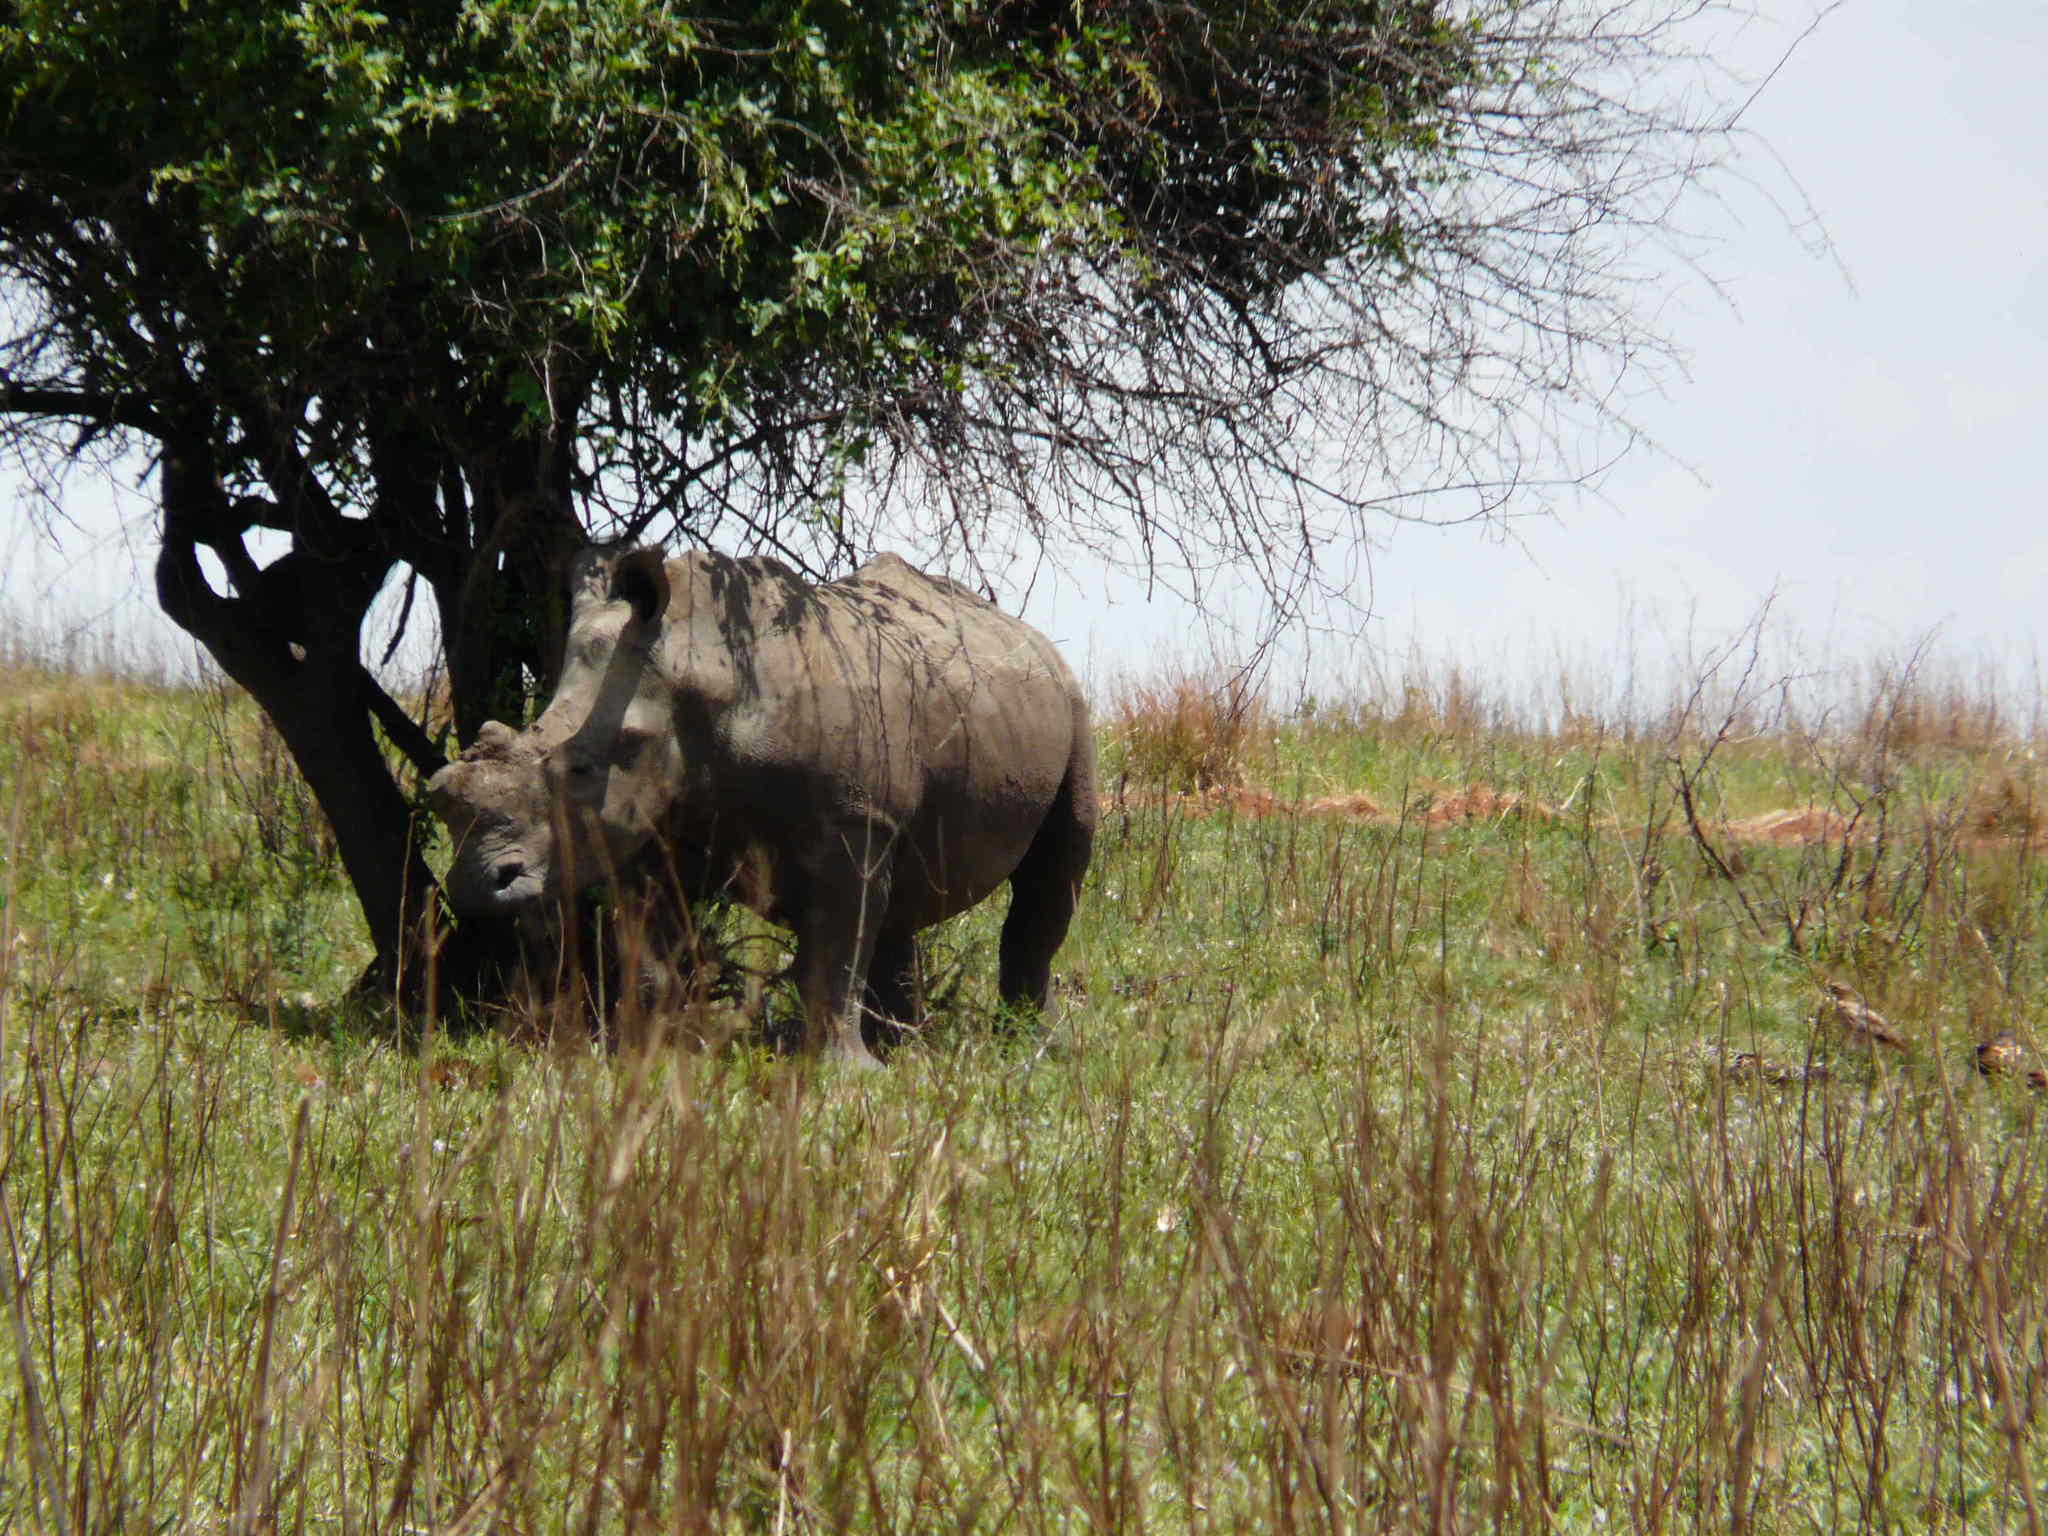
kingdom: Animalia
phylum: Chordata
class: Mammalia
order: Perissodactyla
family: Rhinocerotidae
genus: Ceratotherium
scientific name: Ceratotherium simum
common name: White rhinoceros
